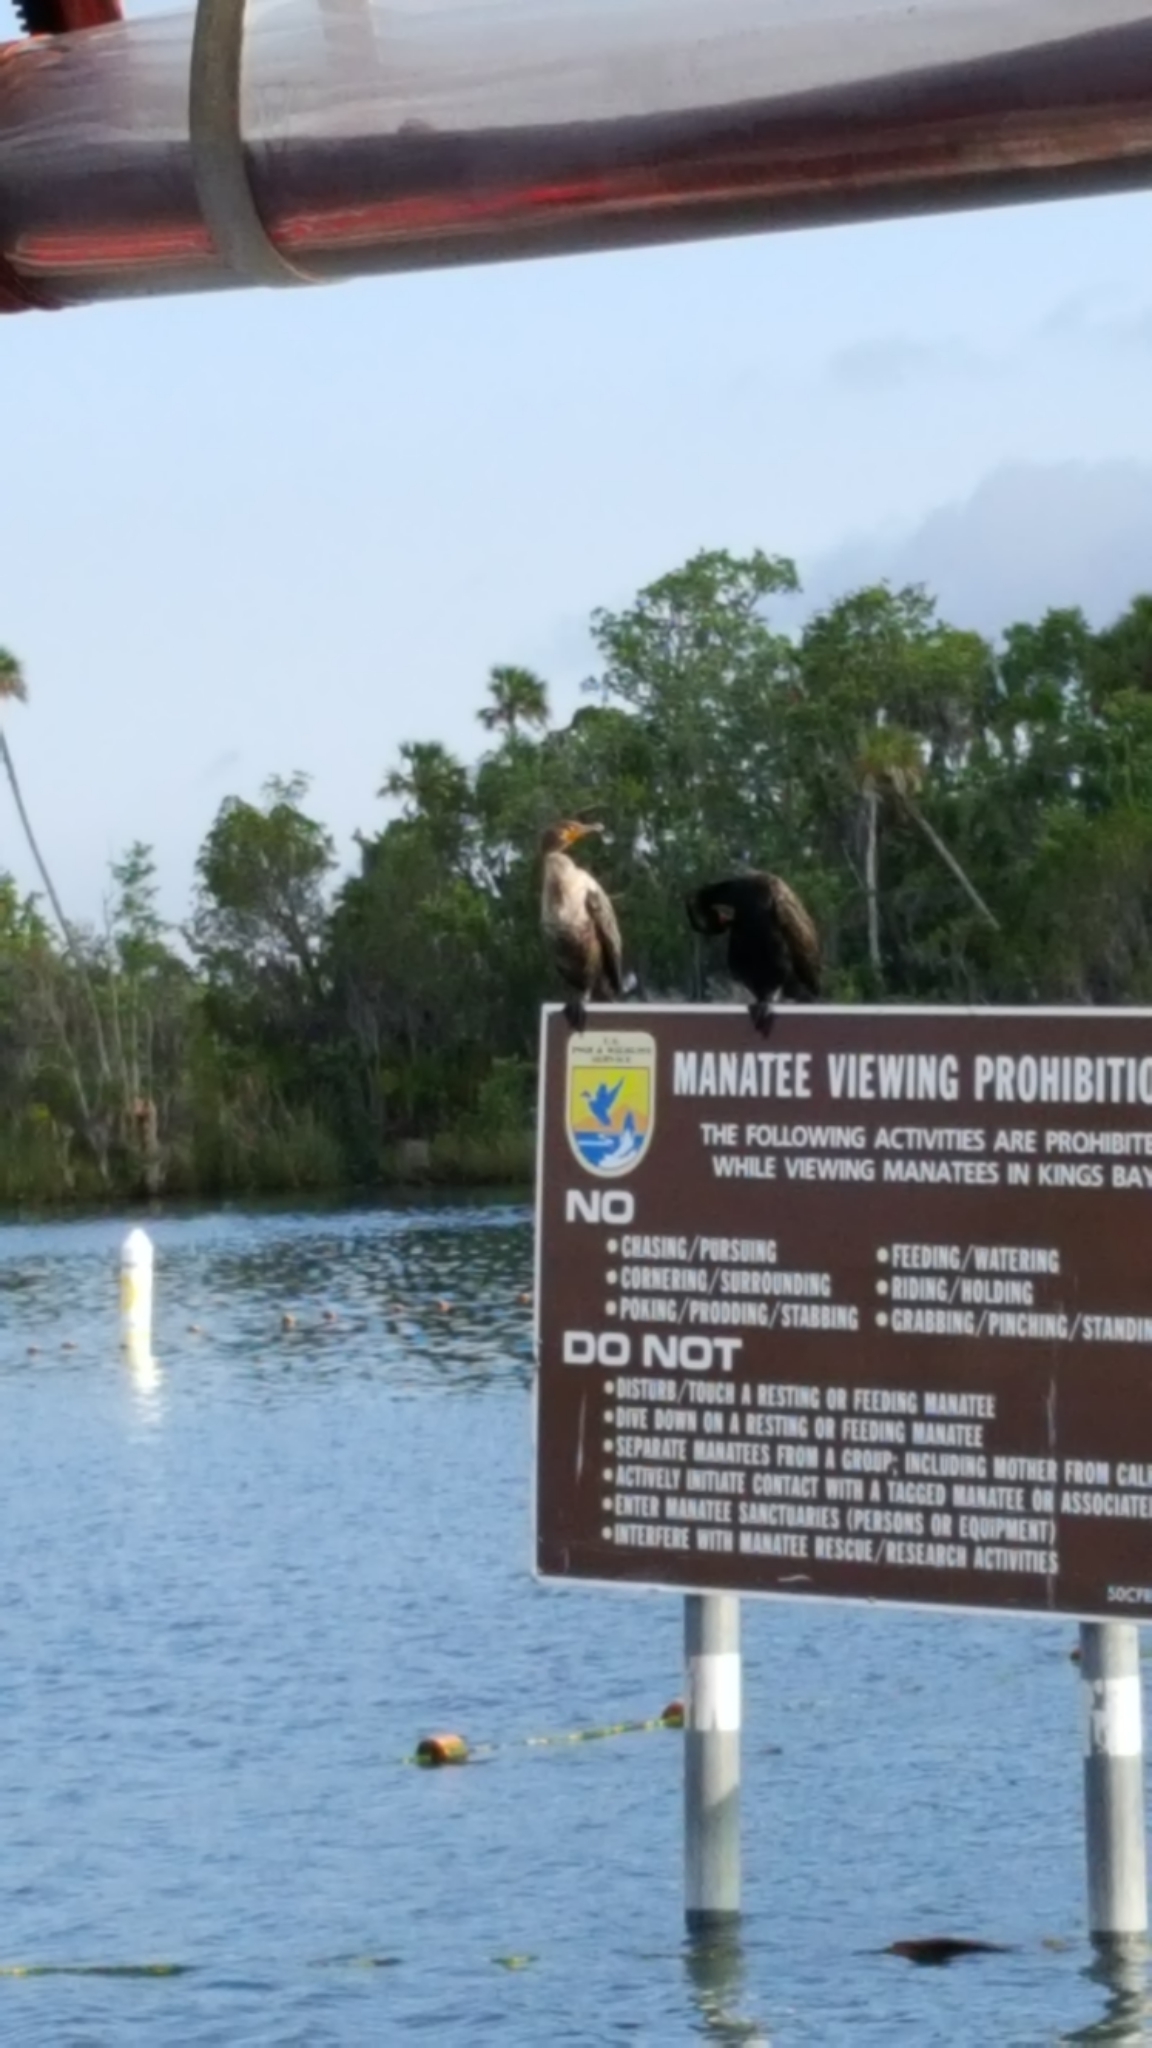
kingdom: Animalia
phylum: Chordata
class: Aves
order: Suliformes
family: Phalacrocoracidae
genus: Phalacrocorax
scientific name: Phalacrocorax auritus
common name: Double-crested cormorant
